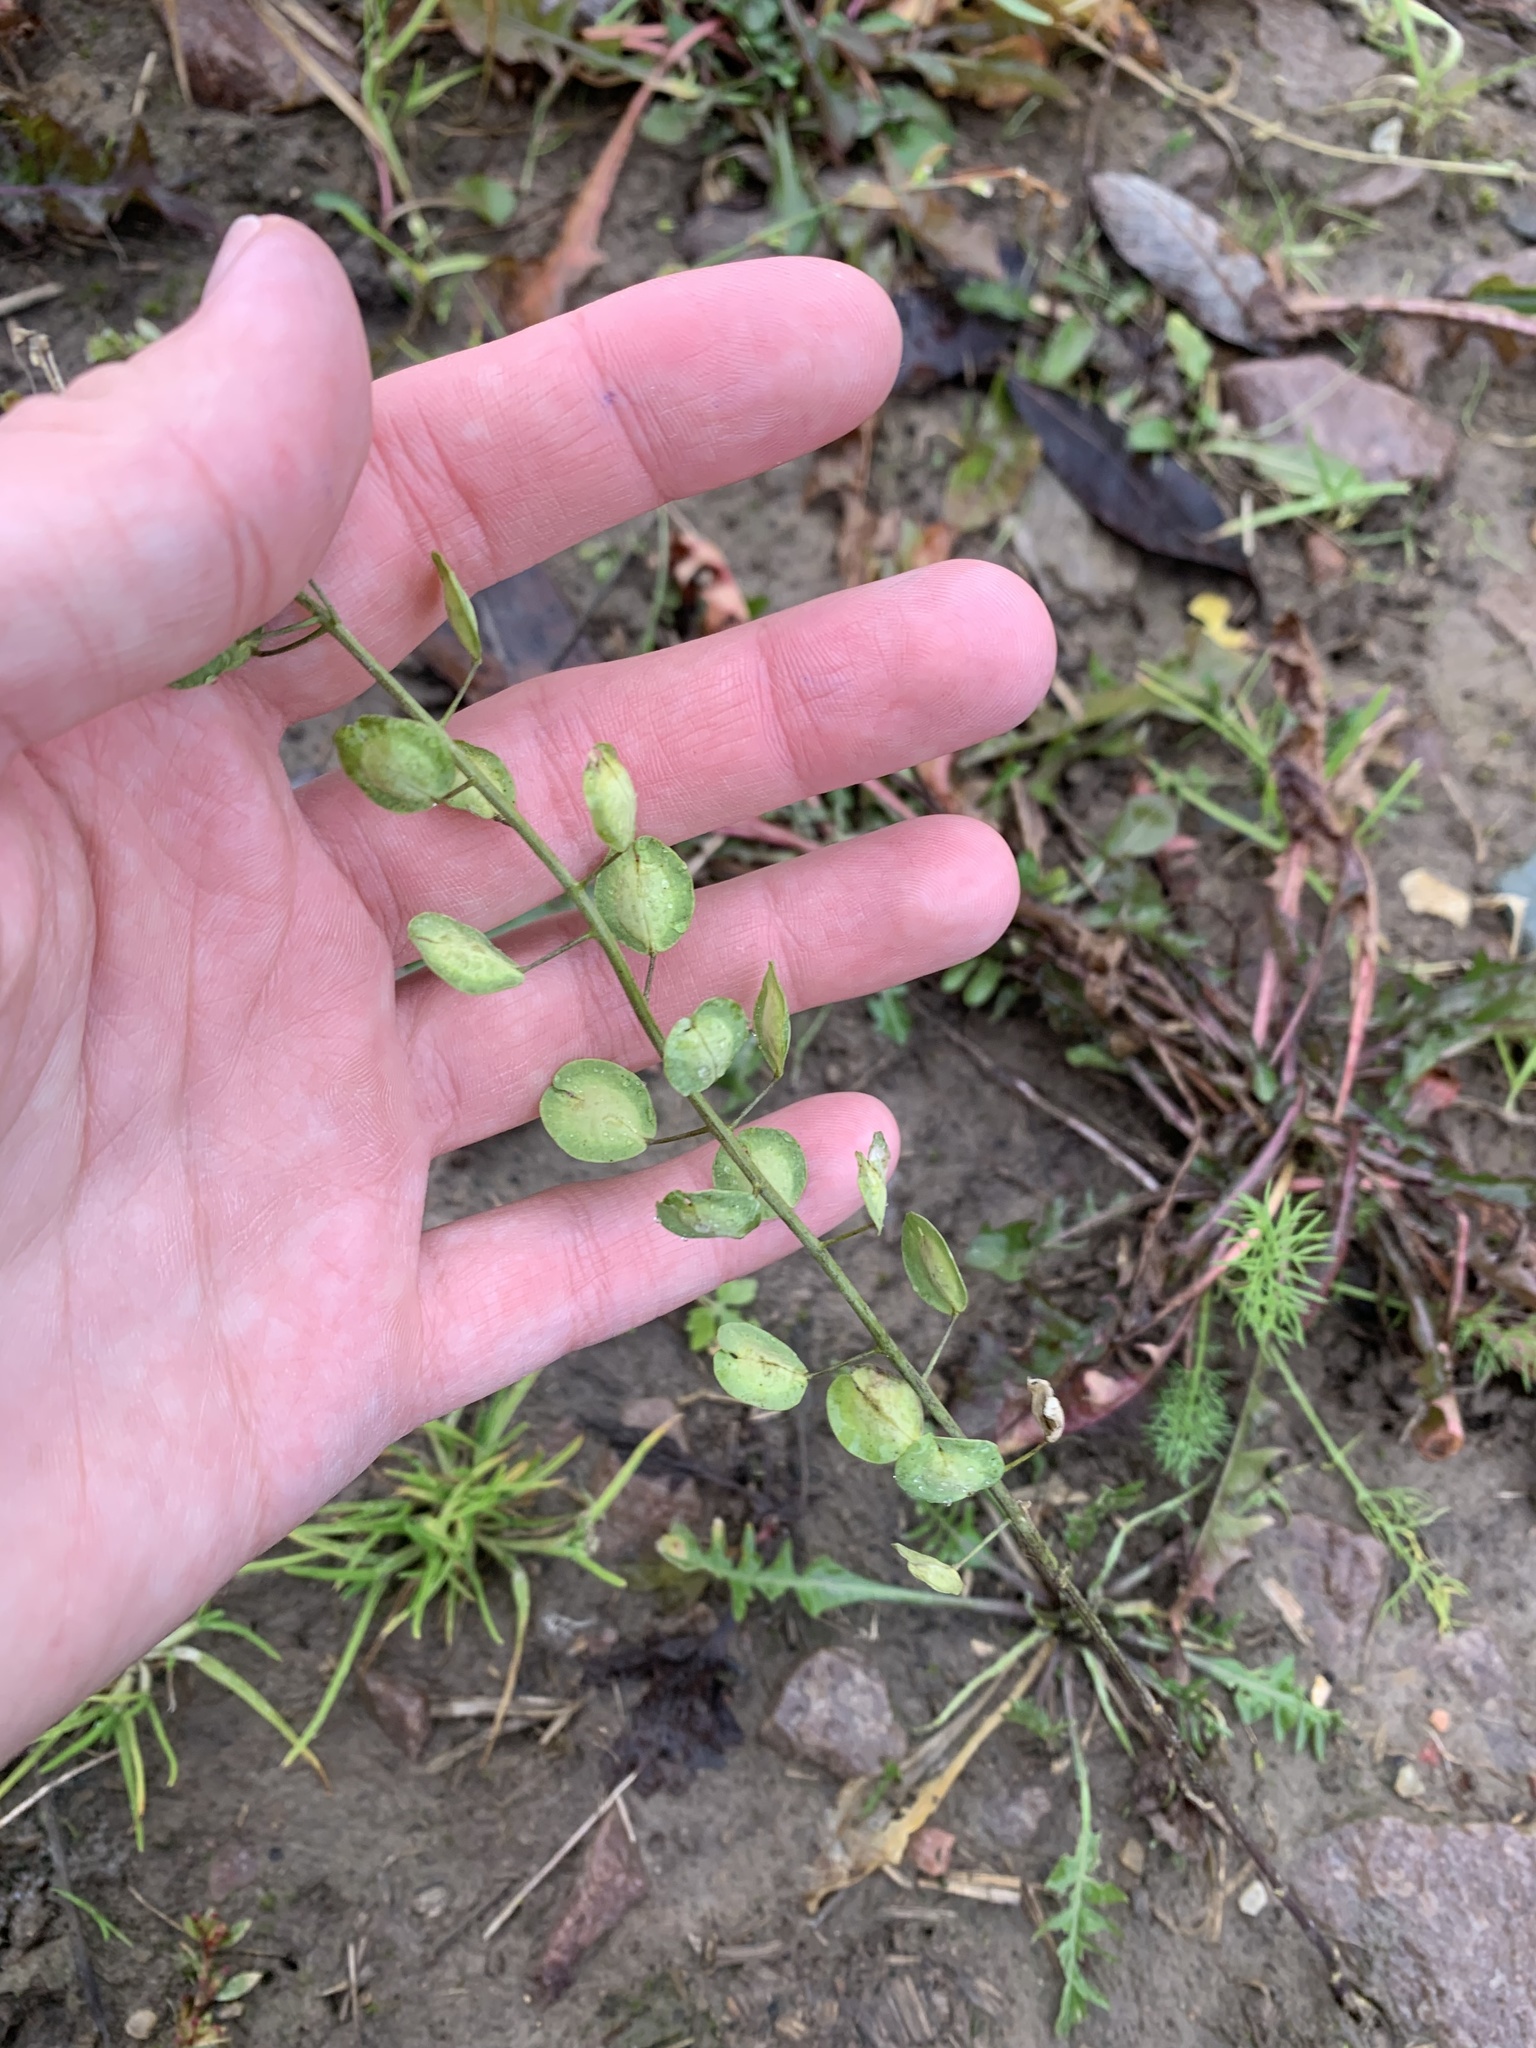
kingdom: Plantae
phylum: Tracheophyta
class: Magnoliopsida
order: Brassicales
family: Brassicaceae
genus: Thlaspi
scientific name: Thlaspi arvense
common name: Field pennycress
